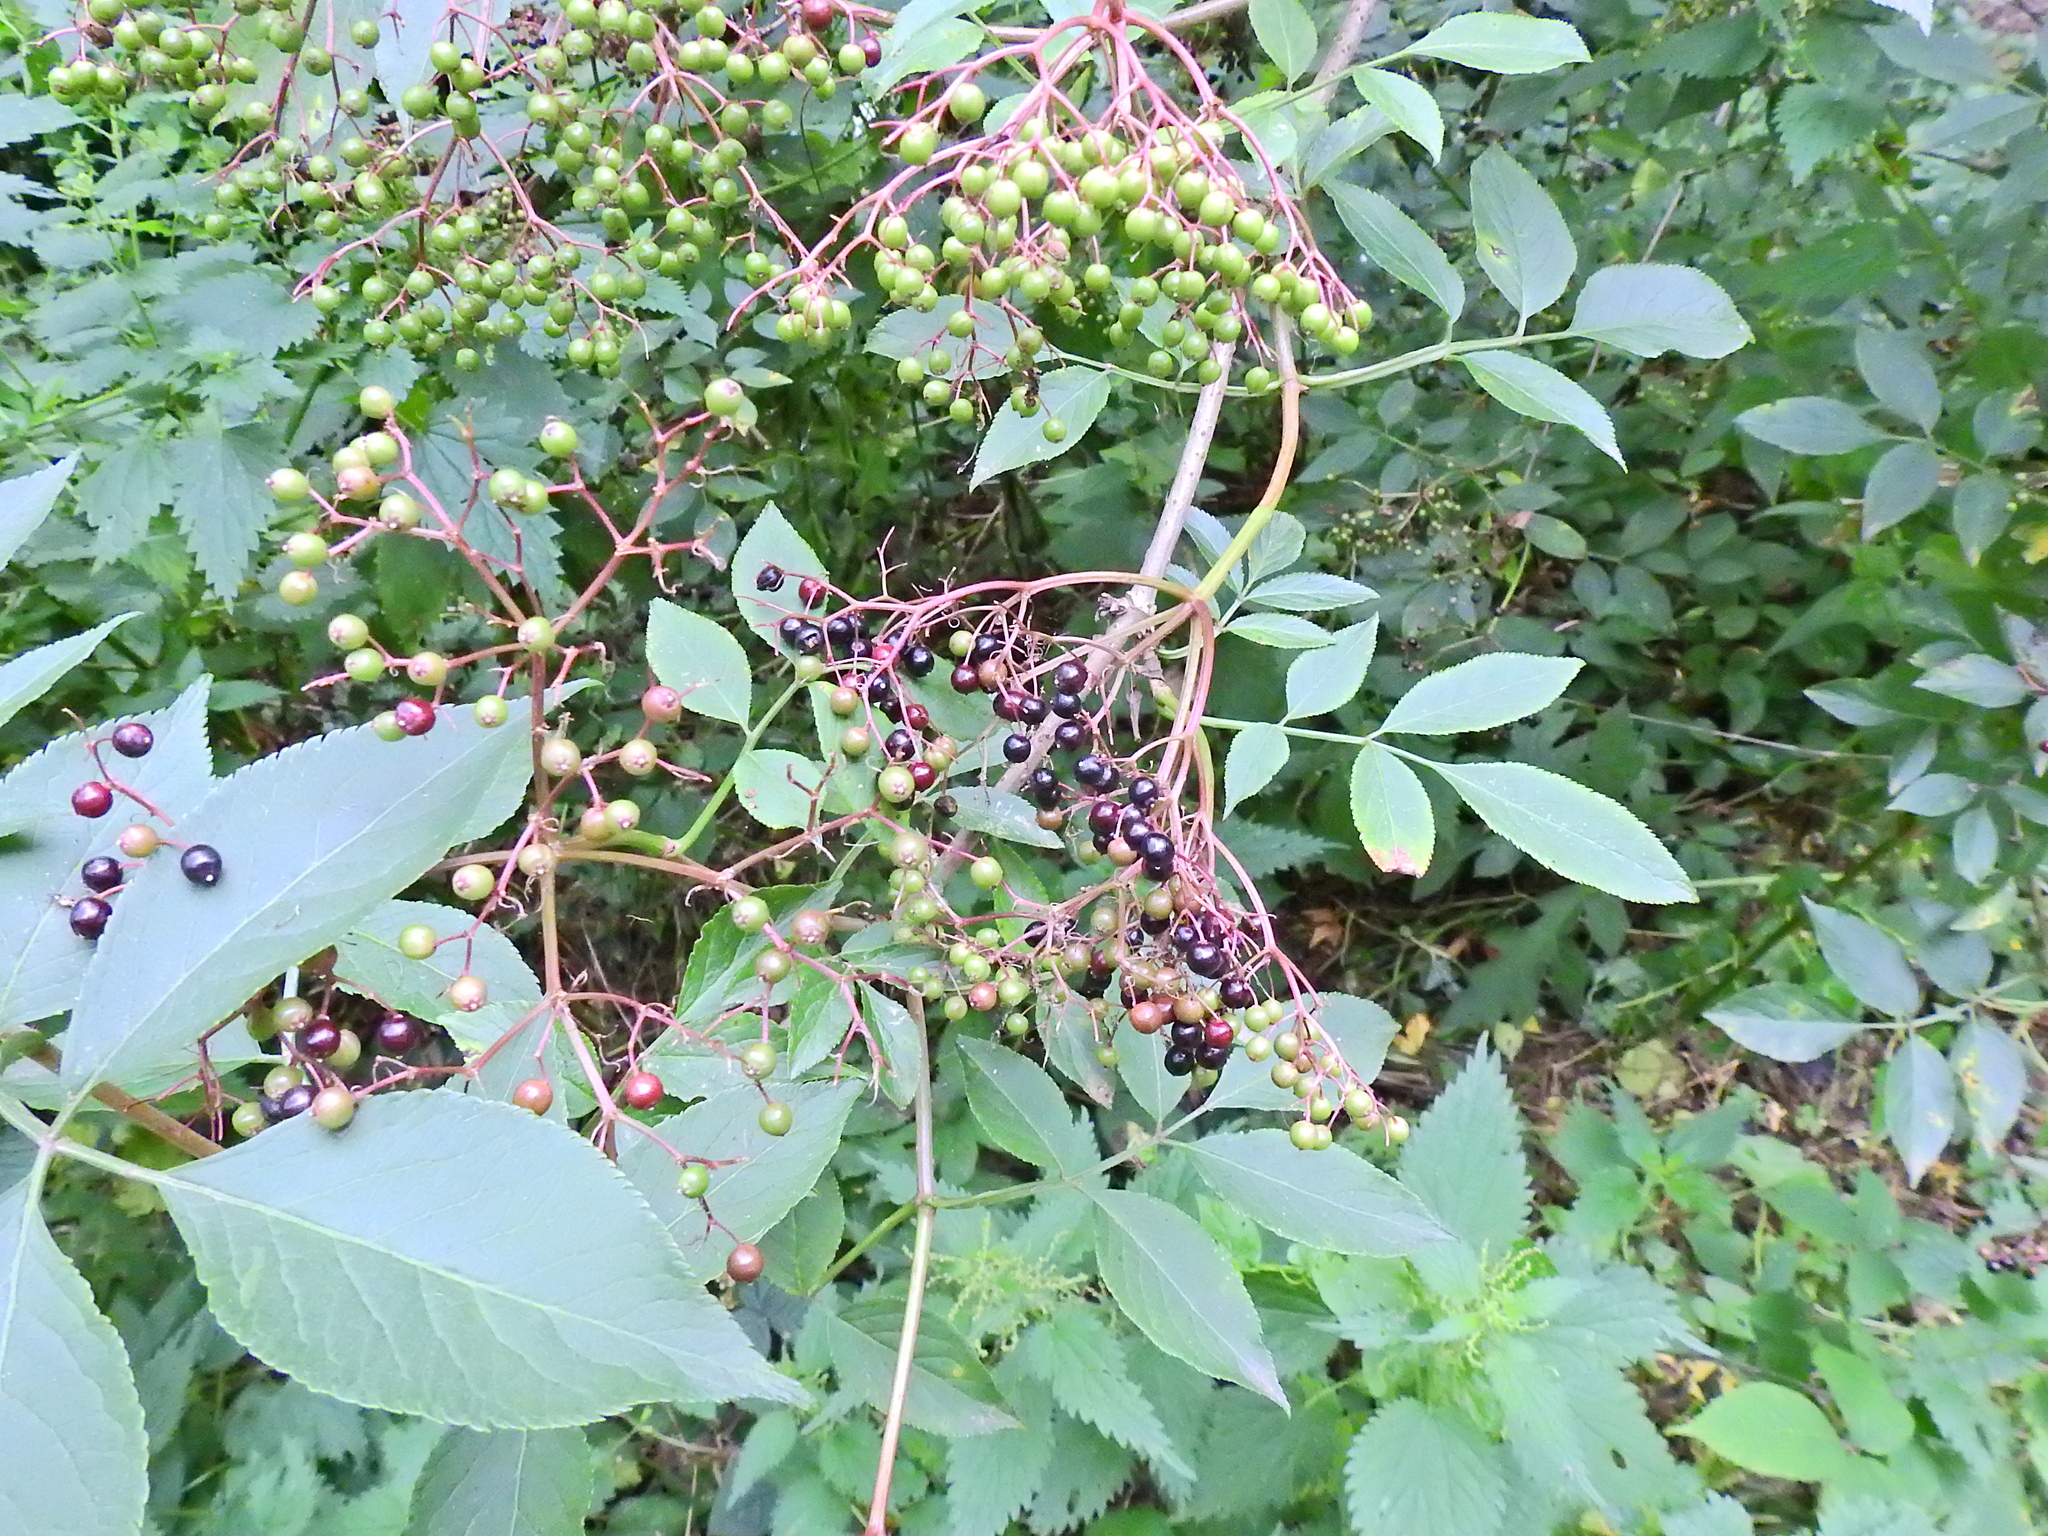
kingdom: Plantae
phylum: Tracheophyta
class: Magnoliopsida
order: Dipsacales
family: Viburnaceae
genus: Sambucus
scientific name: Sambucus nigra
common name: Elder
